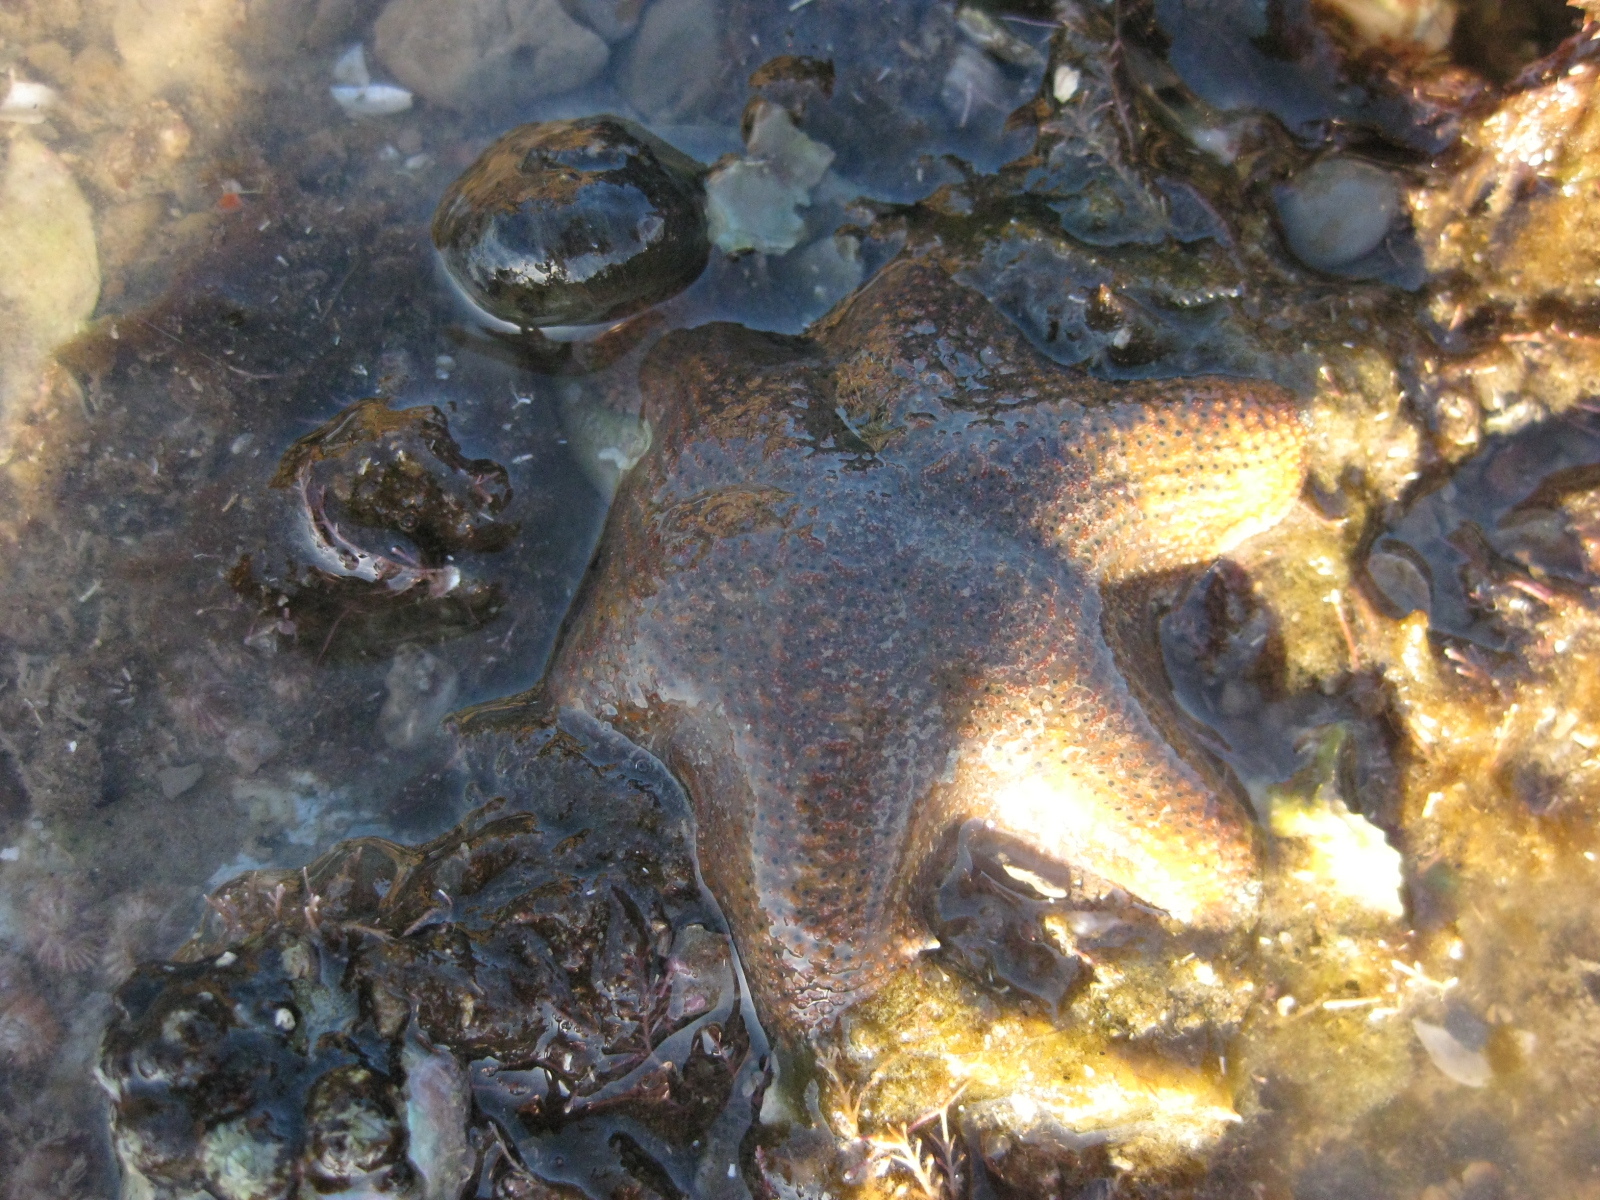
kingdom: Animalia
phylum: Echinodermata
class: Asteroidea
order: Valvatida
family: Asterinidae
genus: Patiriella
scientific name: Patiriella regularis
